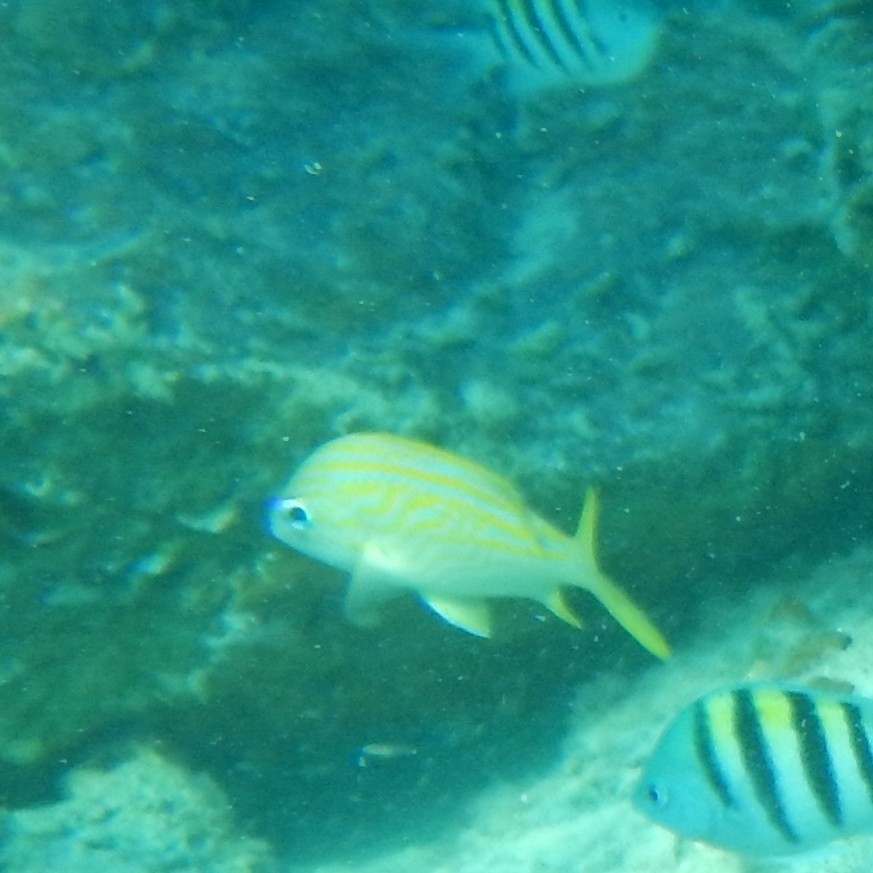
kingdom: Animalia
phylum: Chordata
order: Perciformes
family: Haemulidae
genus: Haemulon
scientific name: Haemulon flavolineatum
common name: French grunt
